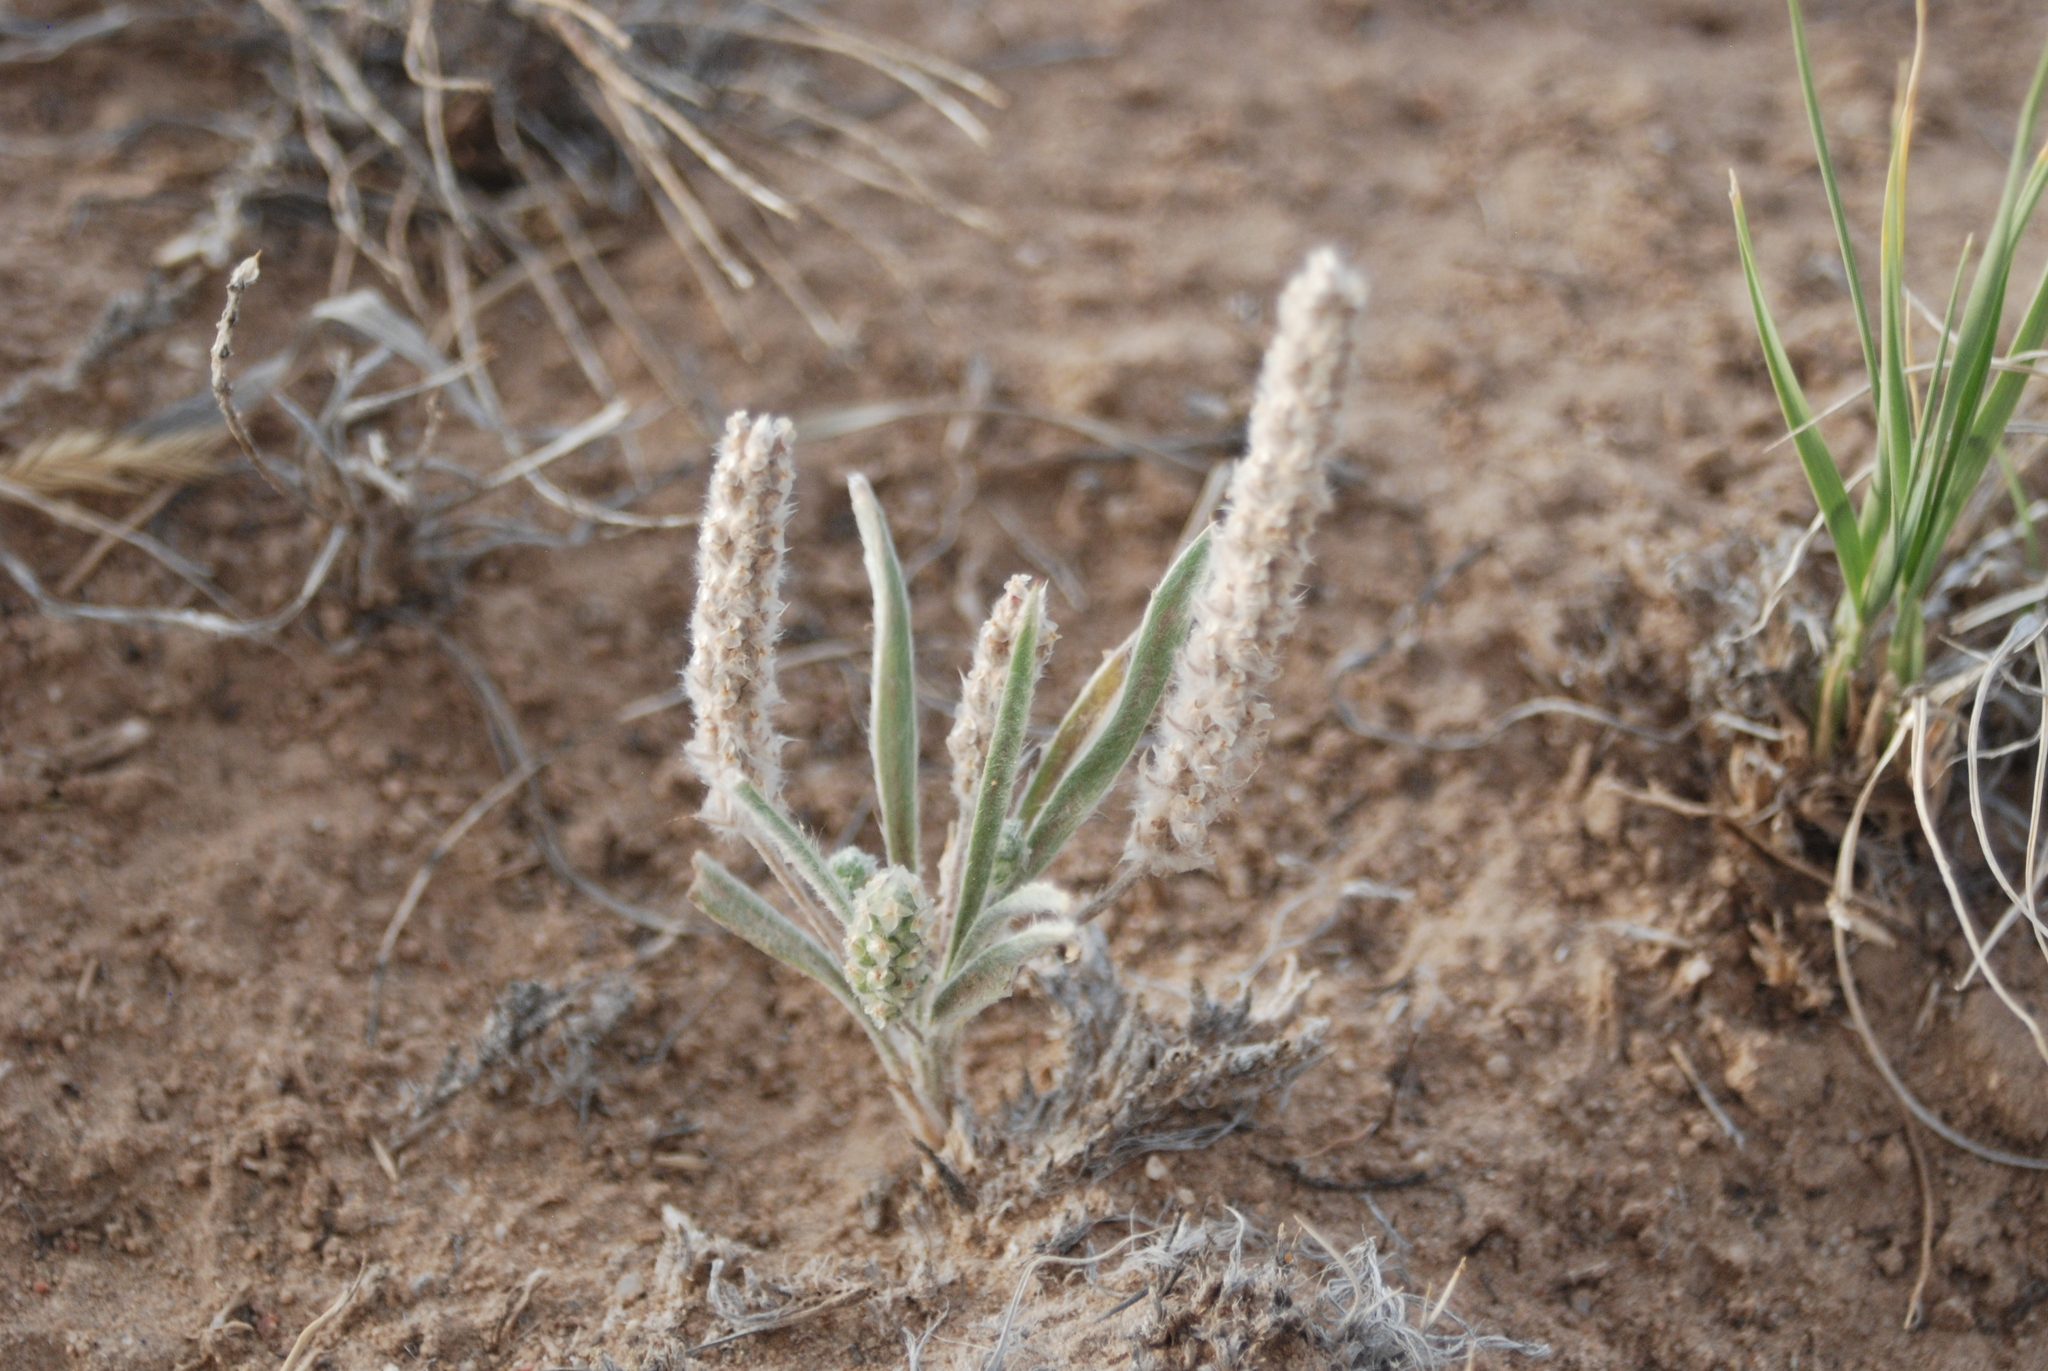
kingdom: Plantae
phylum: Tracheophyta
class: Magnoliopsida
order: Lamiales
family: Plantaginaceae
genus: Plantago
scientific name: Plantago patagonica
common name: Patagonia indian-wheat
